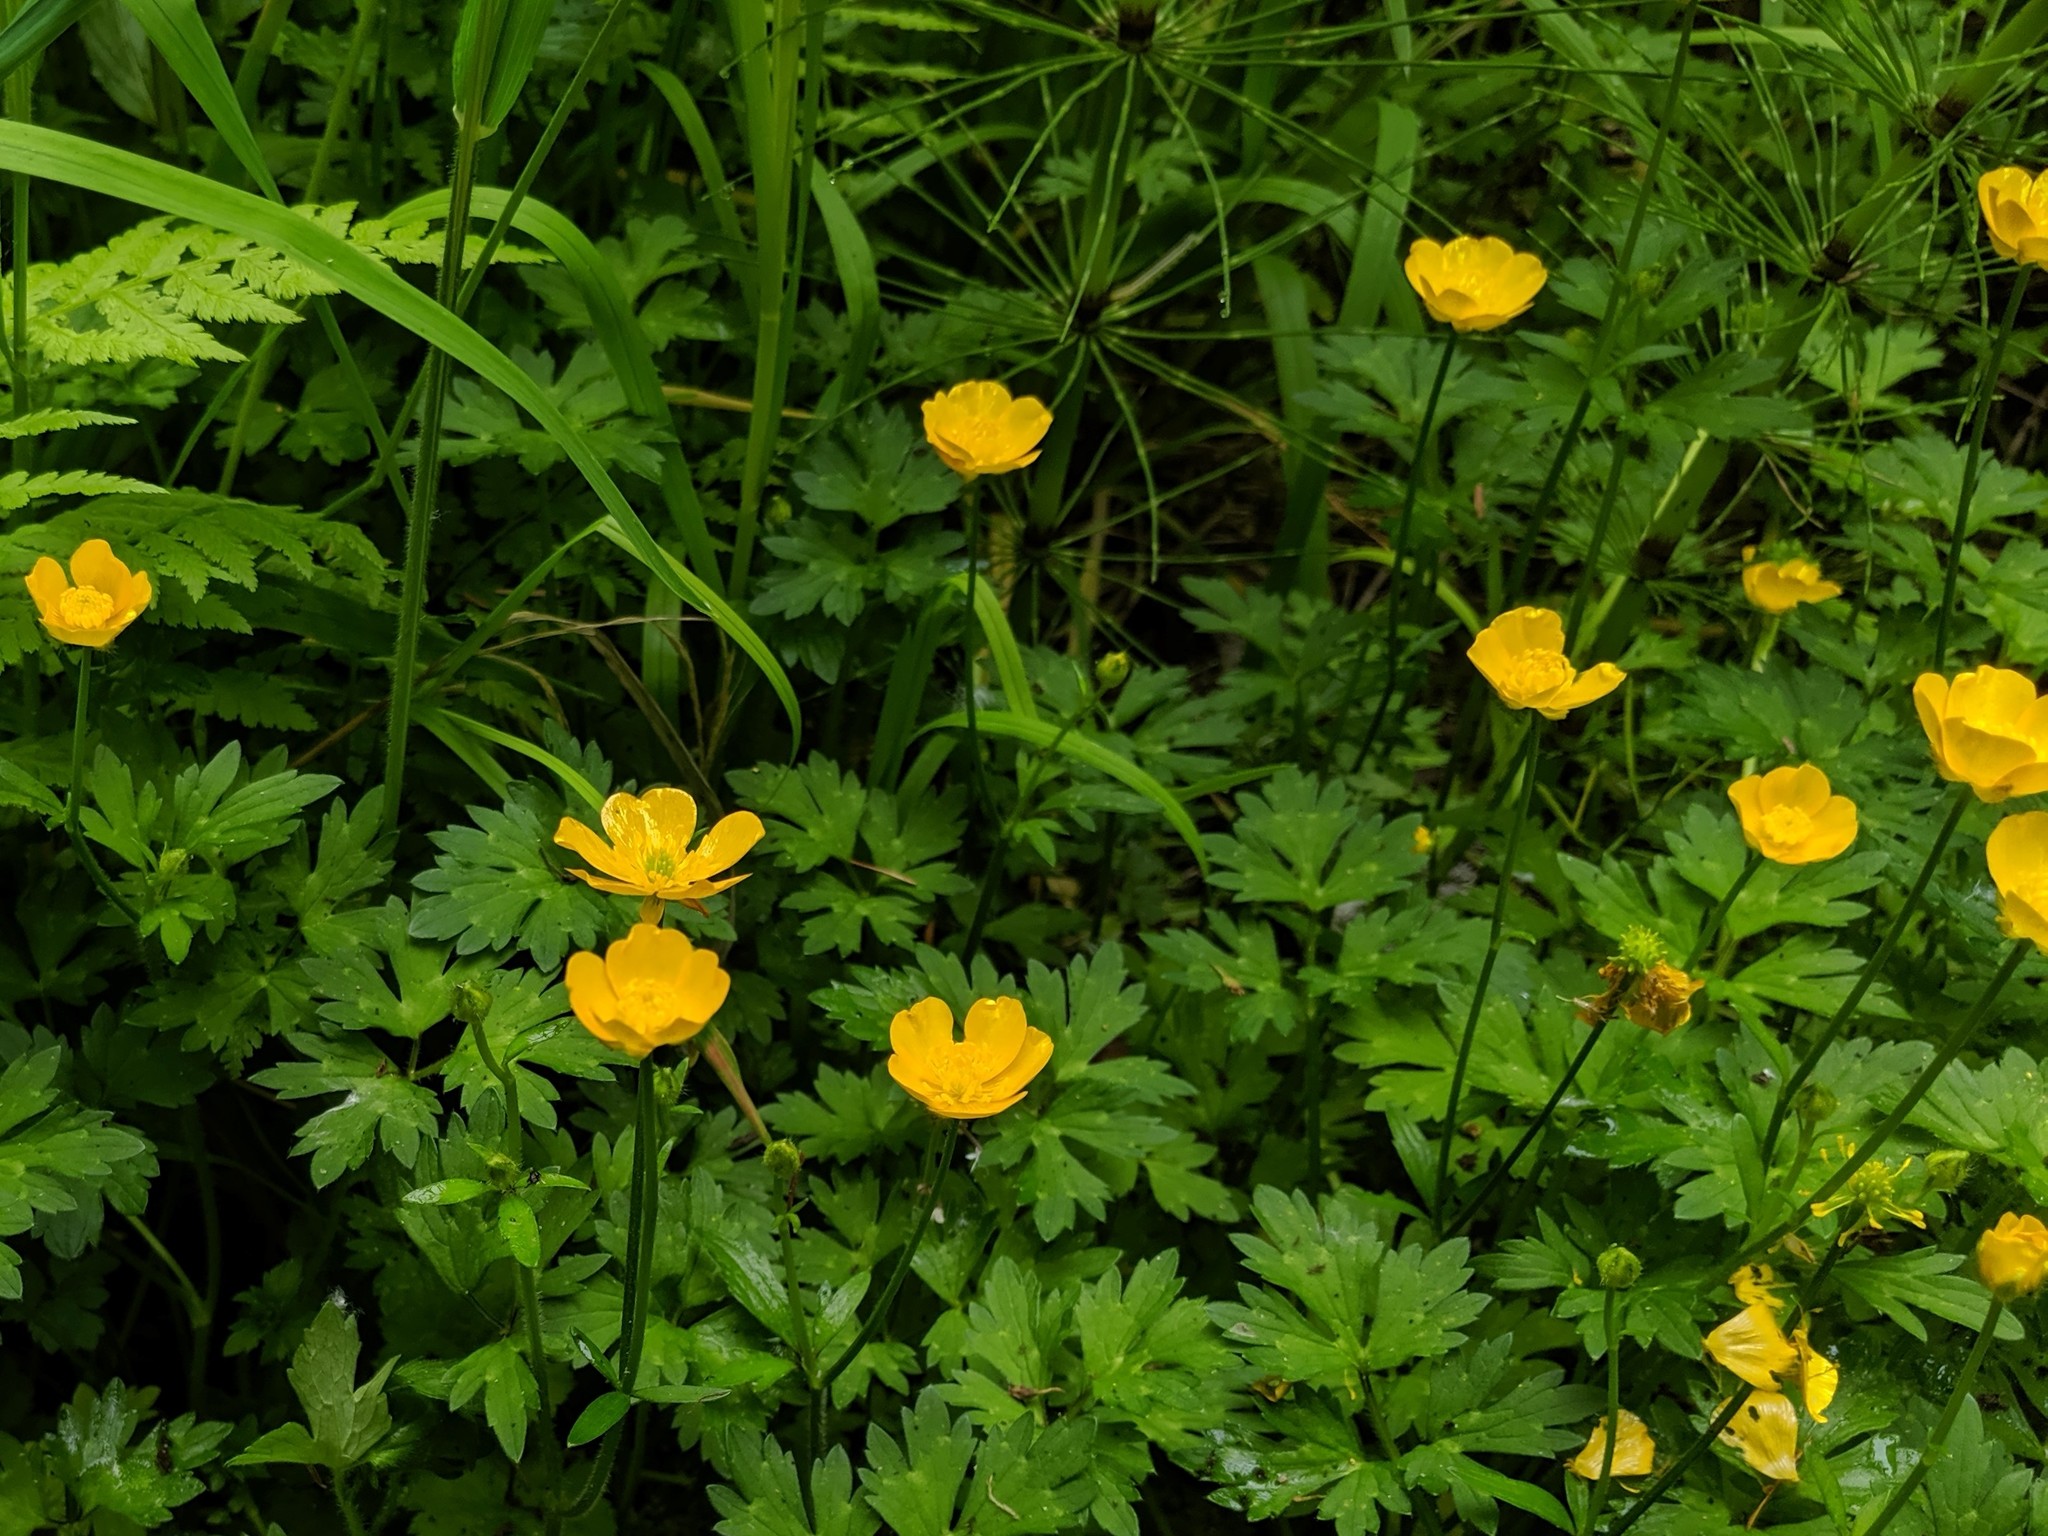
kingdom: Plantae
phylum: Tracheophyta
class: Magnoliopsida
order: Ranunculales
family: Ranunculaceae
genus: Ranunculus
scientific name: Ranunculus repens
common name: Creeping buttercup
